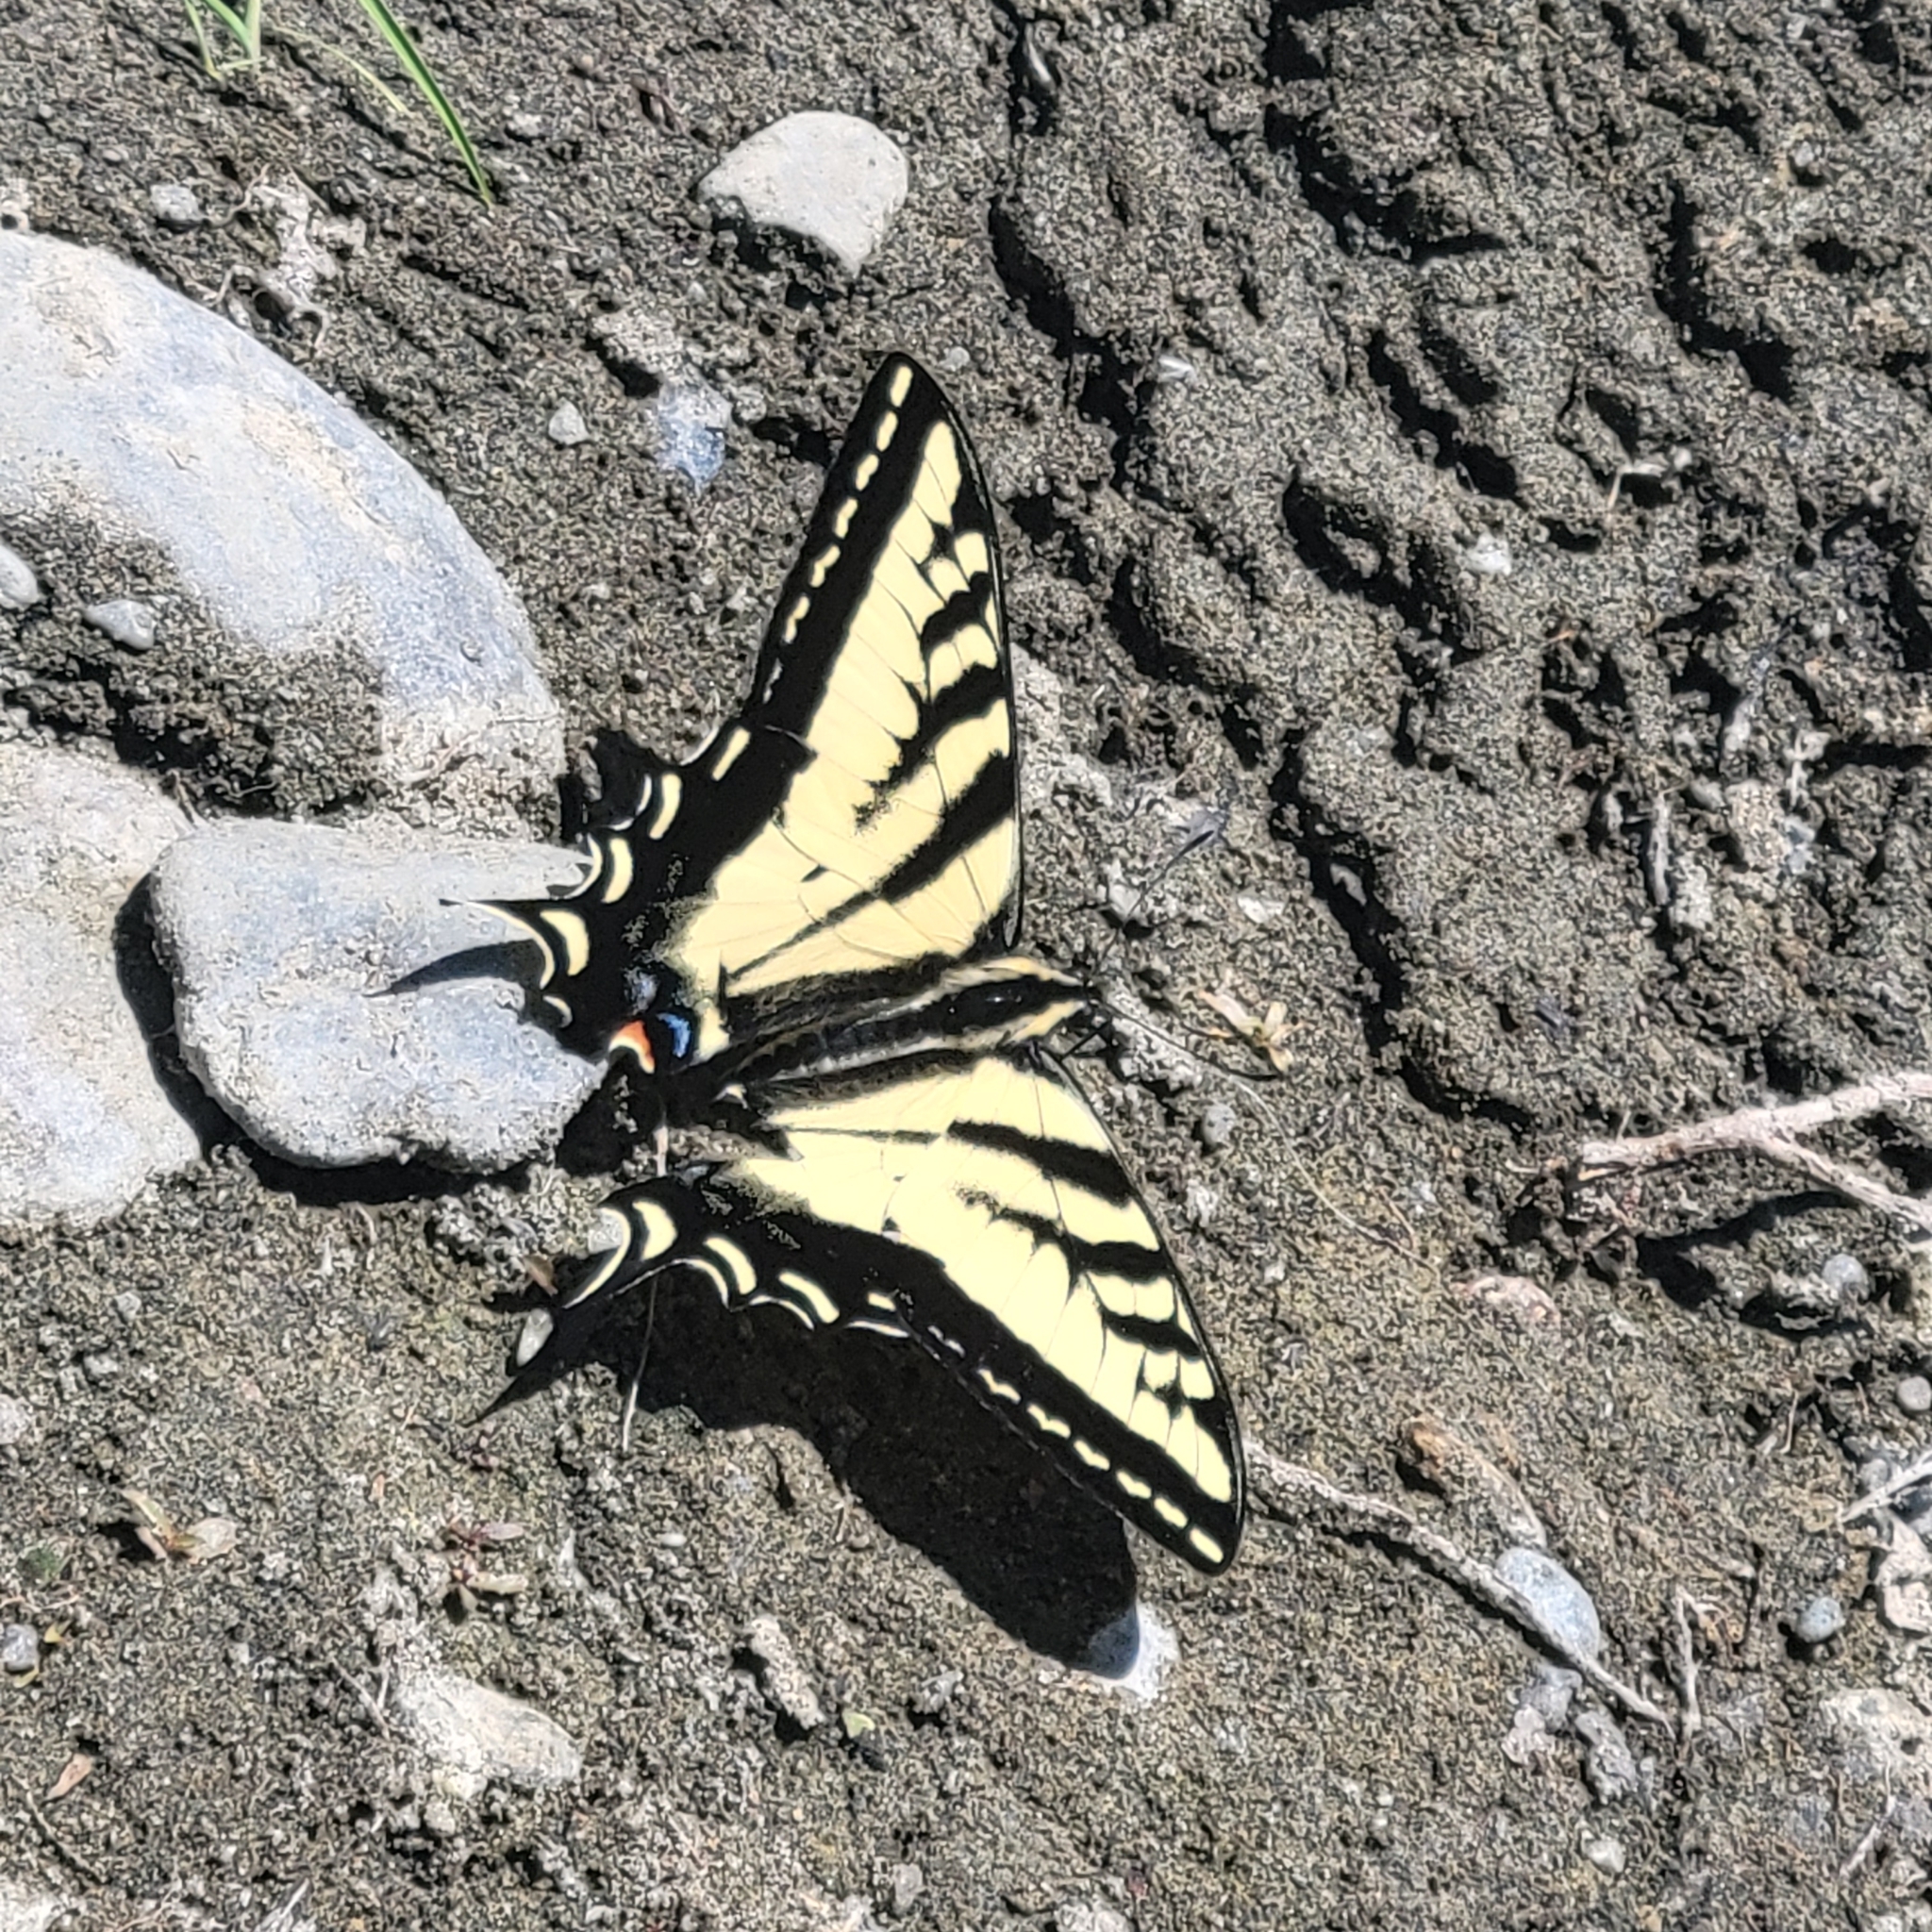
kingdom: Animalia
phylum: Arthropoda
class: Insecta
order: Lepidoptera
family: Papilionidae
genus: Papilio
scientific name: Papilio rutulus
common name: Western tiger swallowtail
